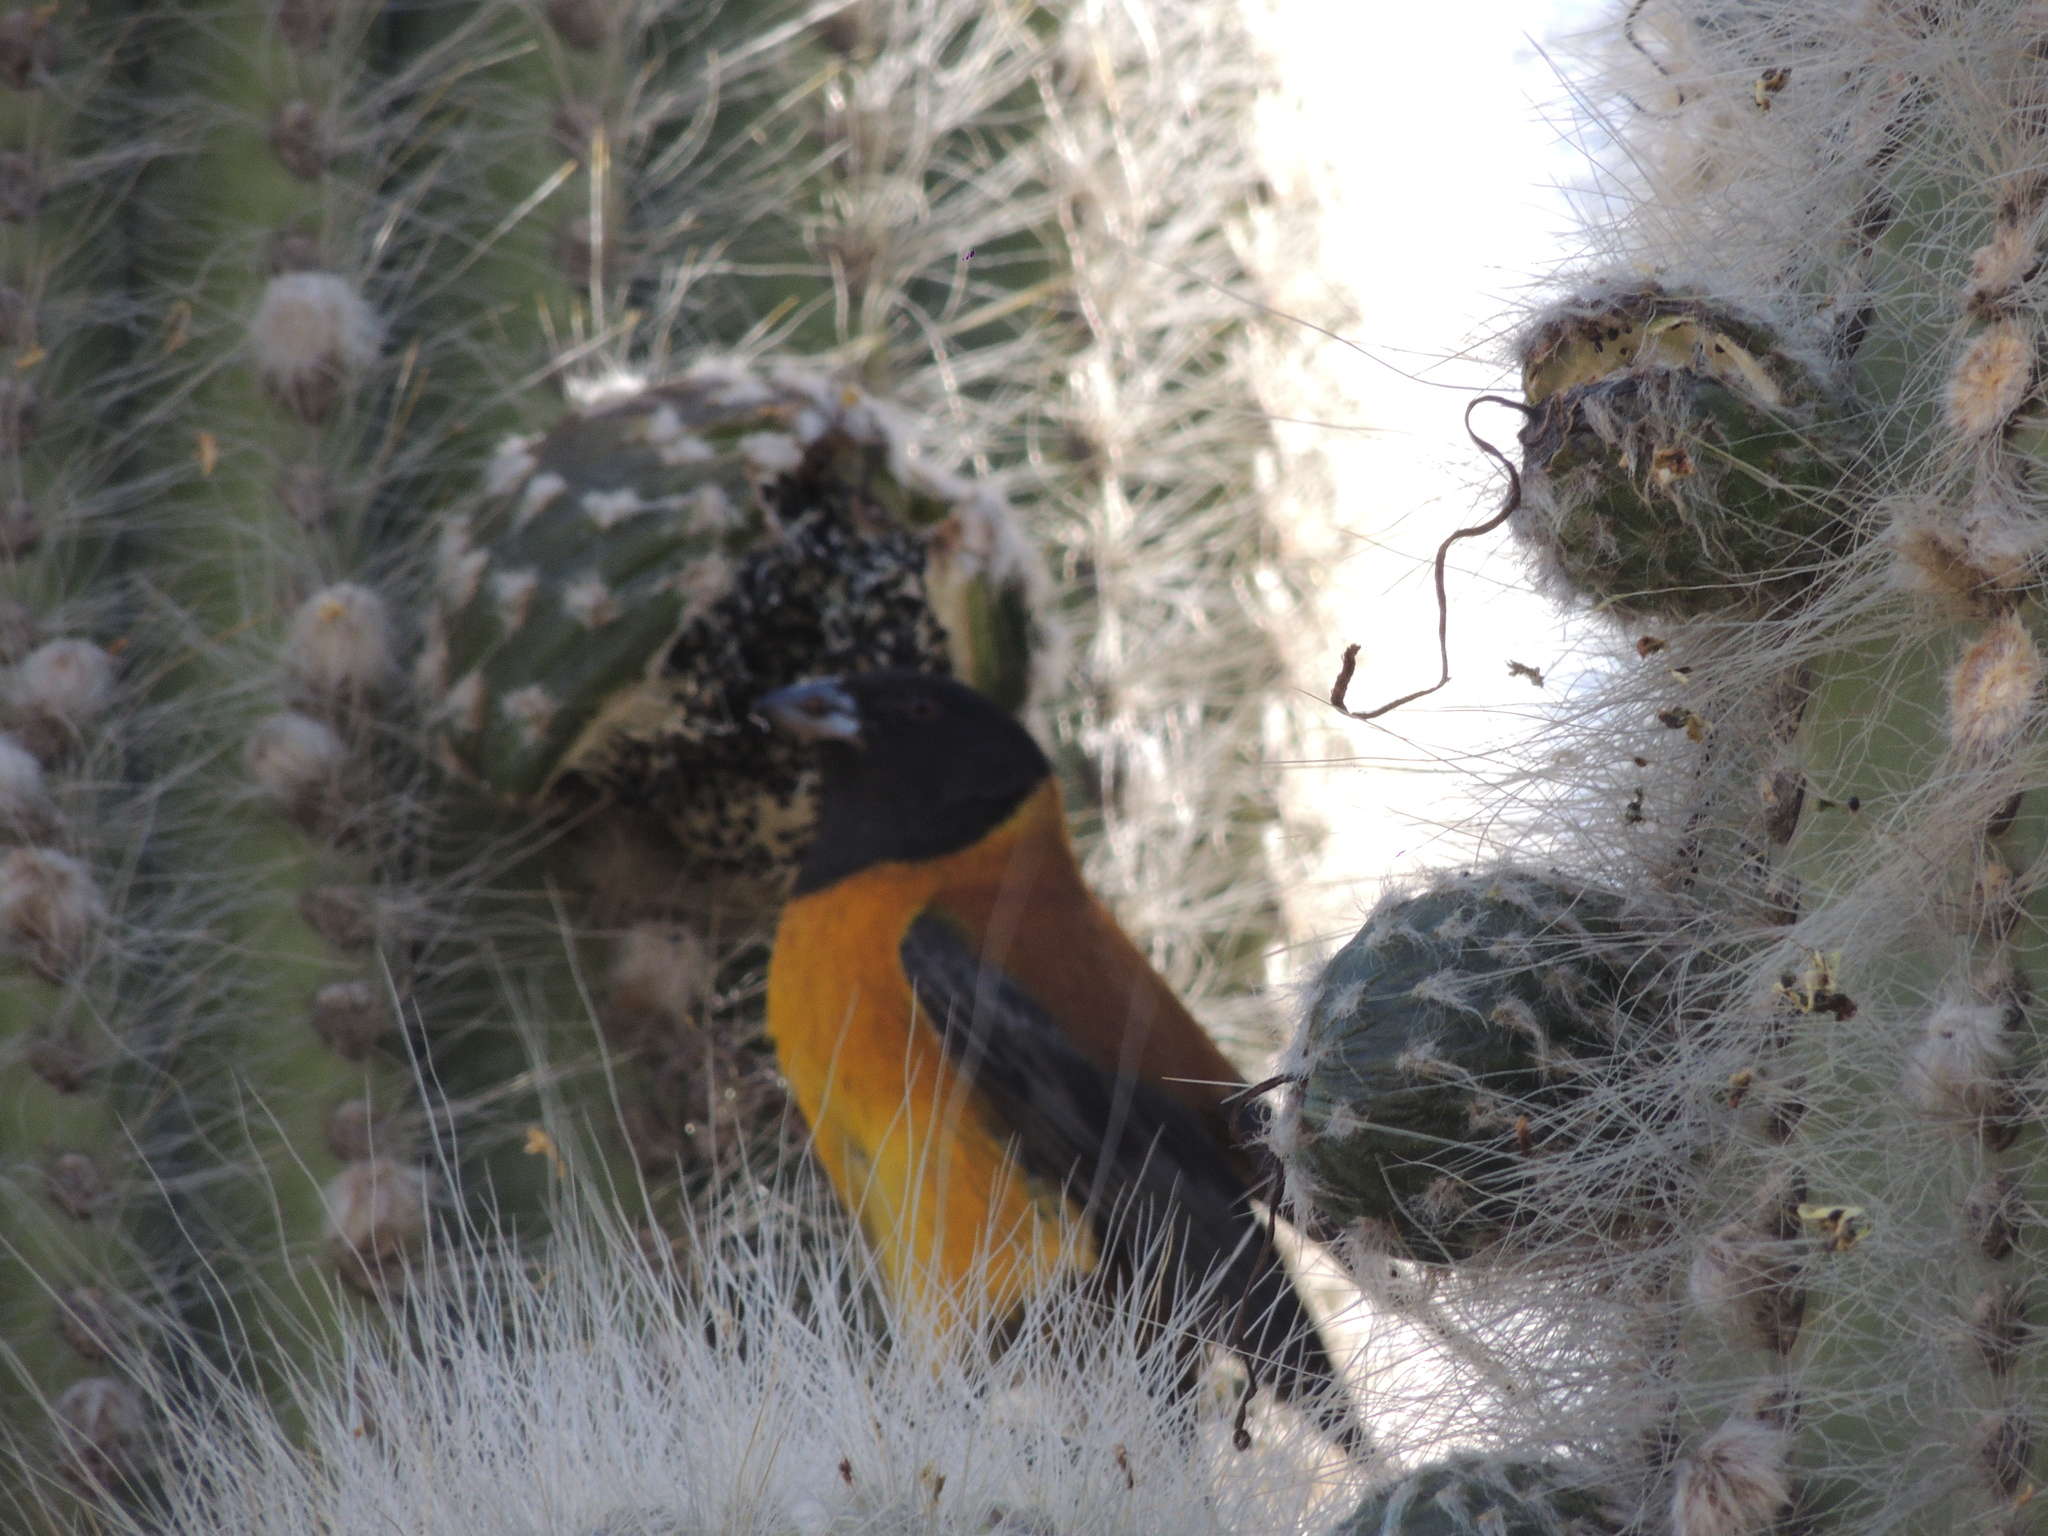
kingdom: Animalia
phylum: Chordata
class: Aves
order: Passeriformes
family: Thraupidae
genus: Phrygilus
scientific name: Phrygilus atriceps
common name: Black-hooded sierra finch
